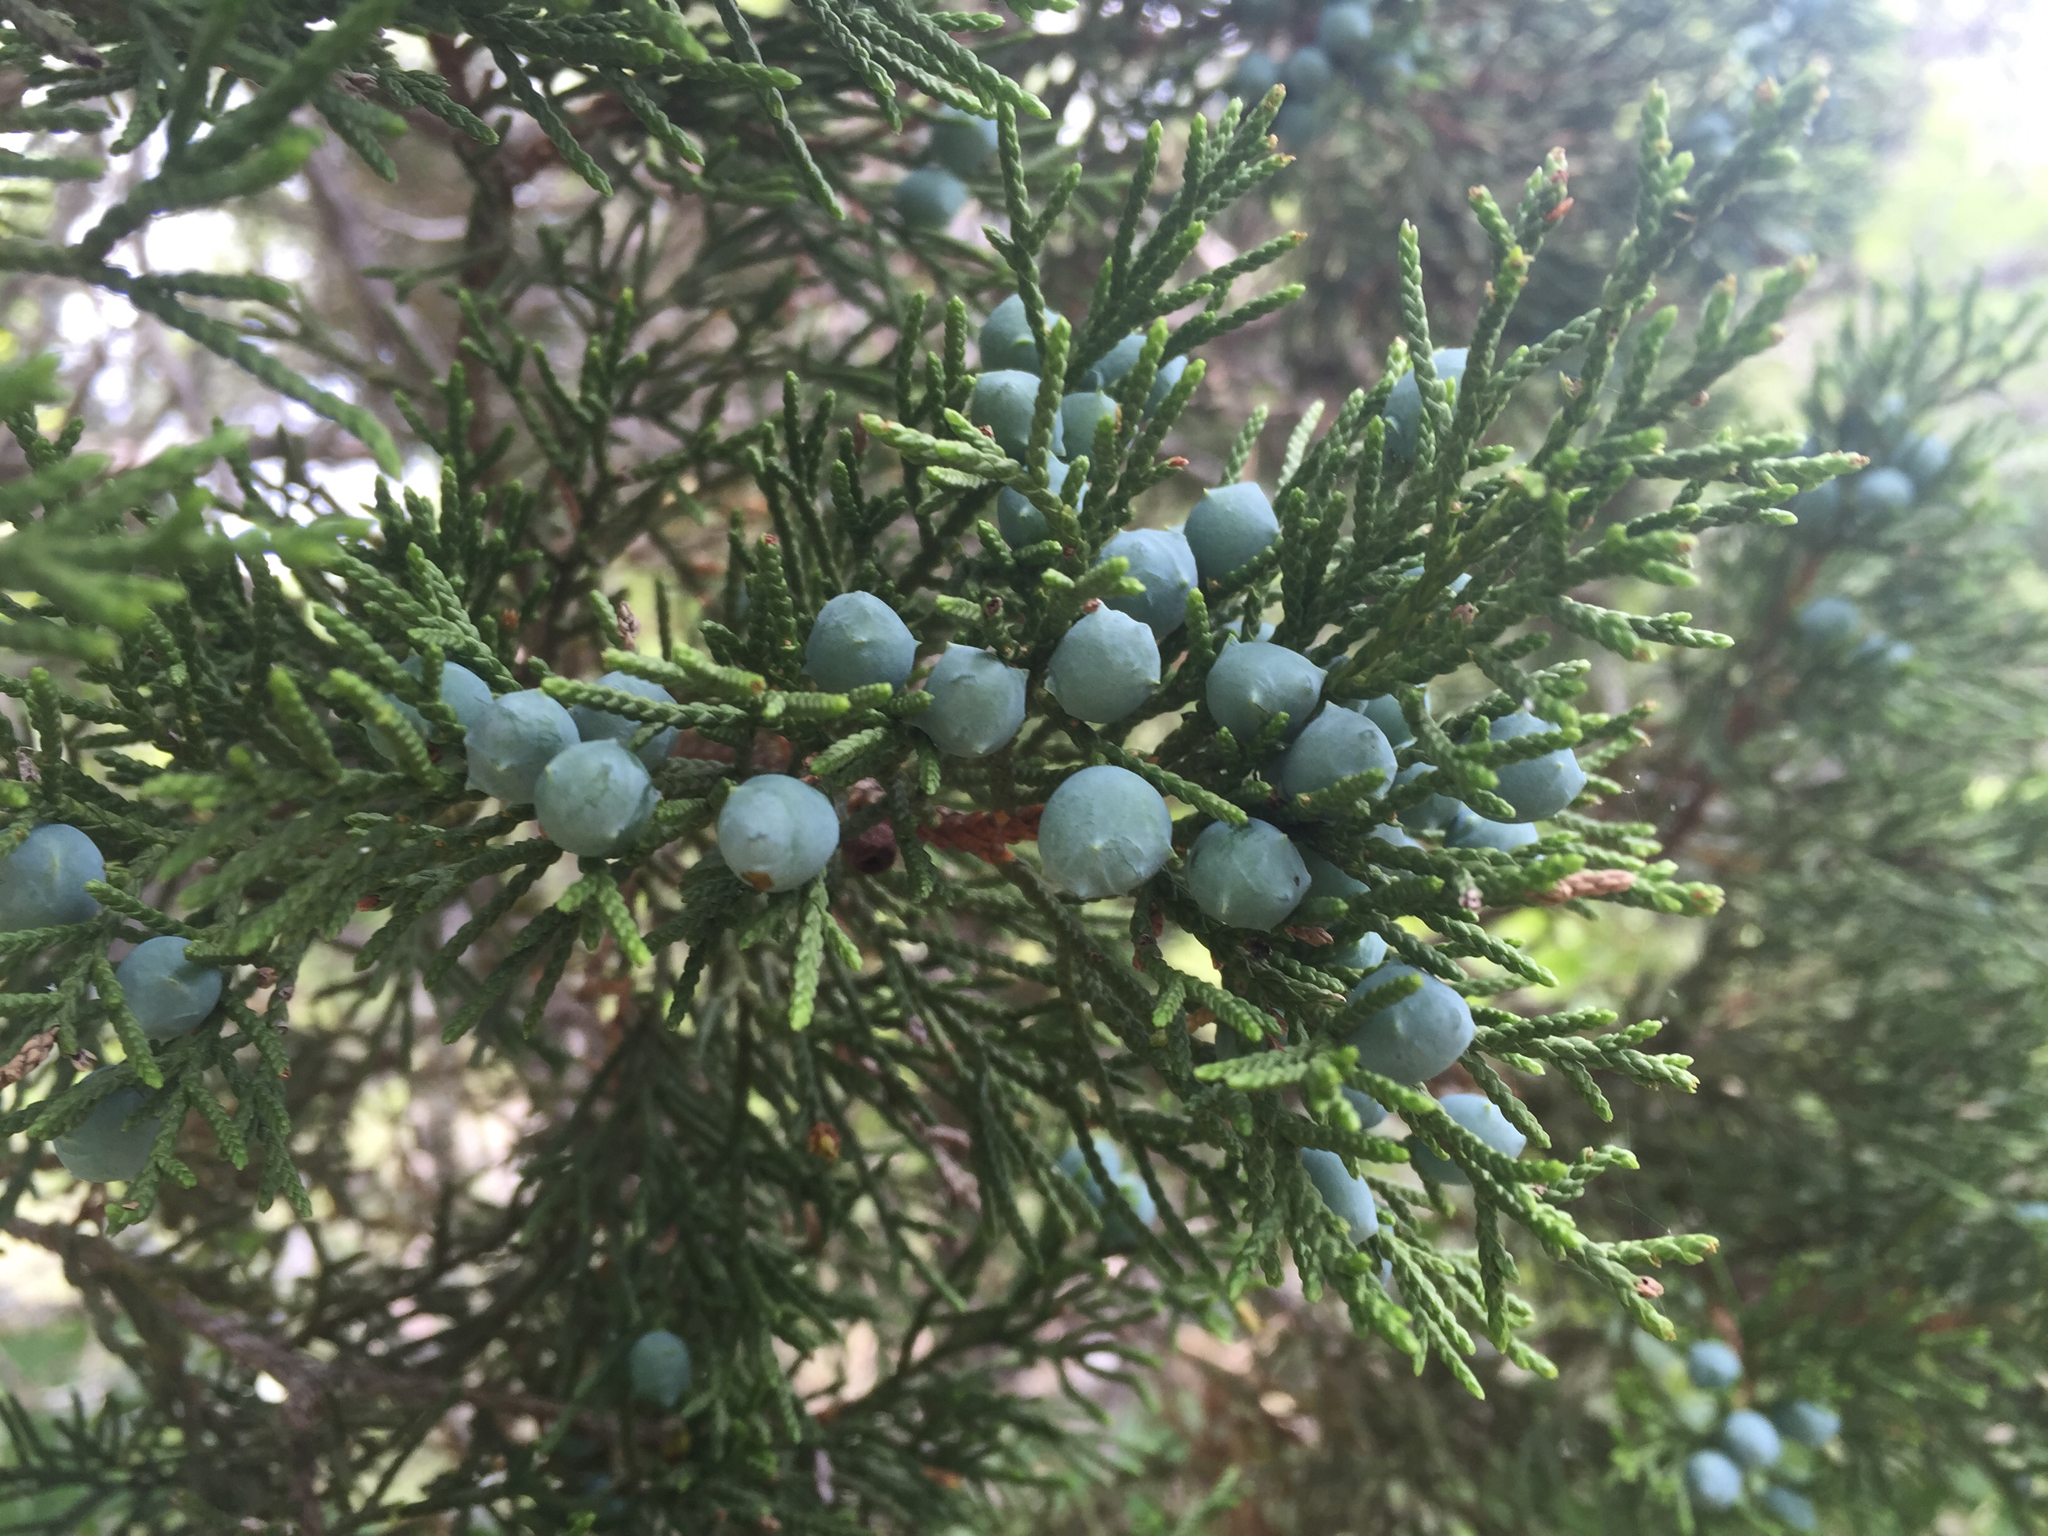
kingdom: Plantae
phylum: Tracheophyta
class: Pinopsida
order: Pinales
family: Cupressaceae
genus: Juniperus
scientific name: Juniperus ashei
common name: Mexican juniper
